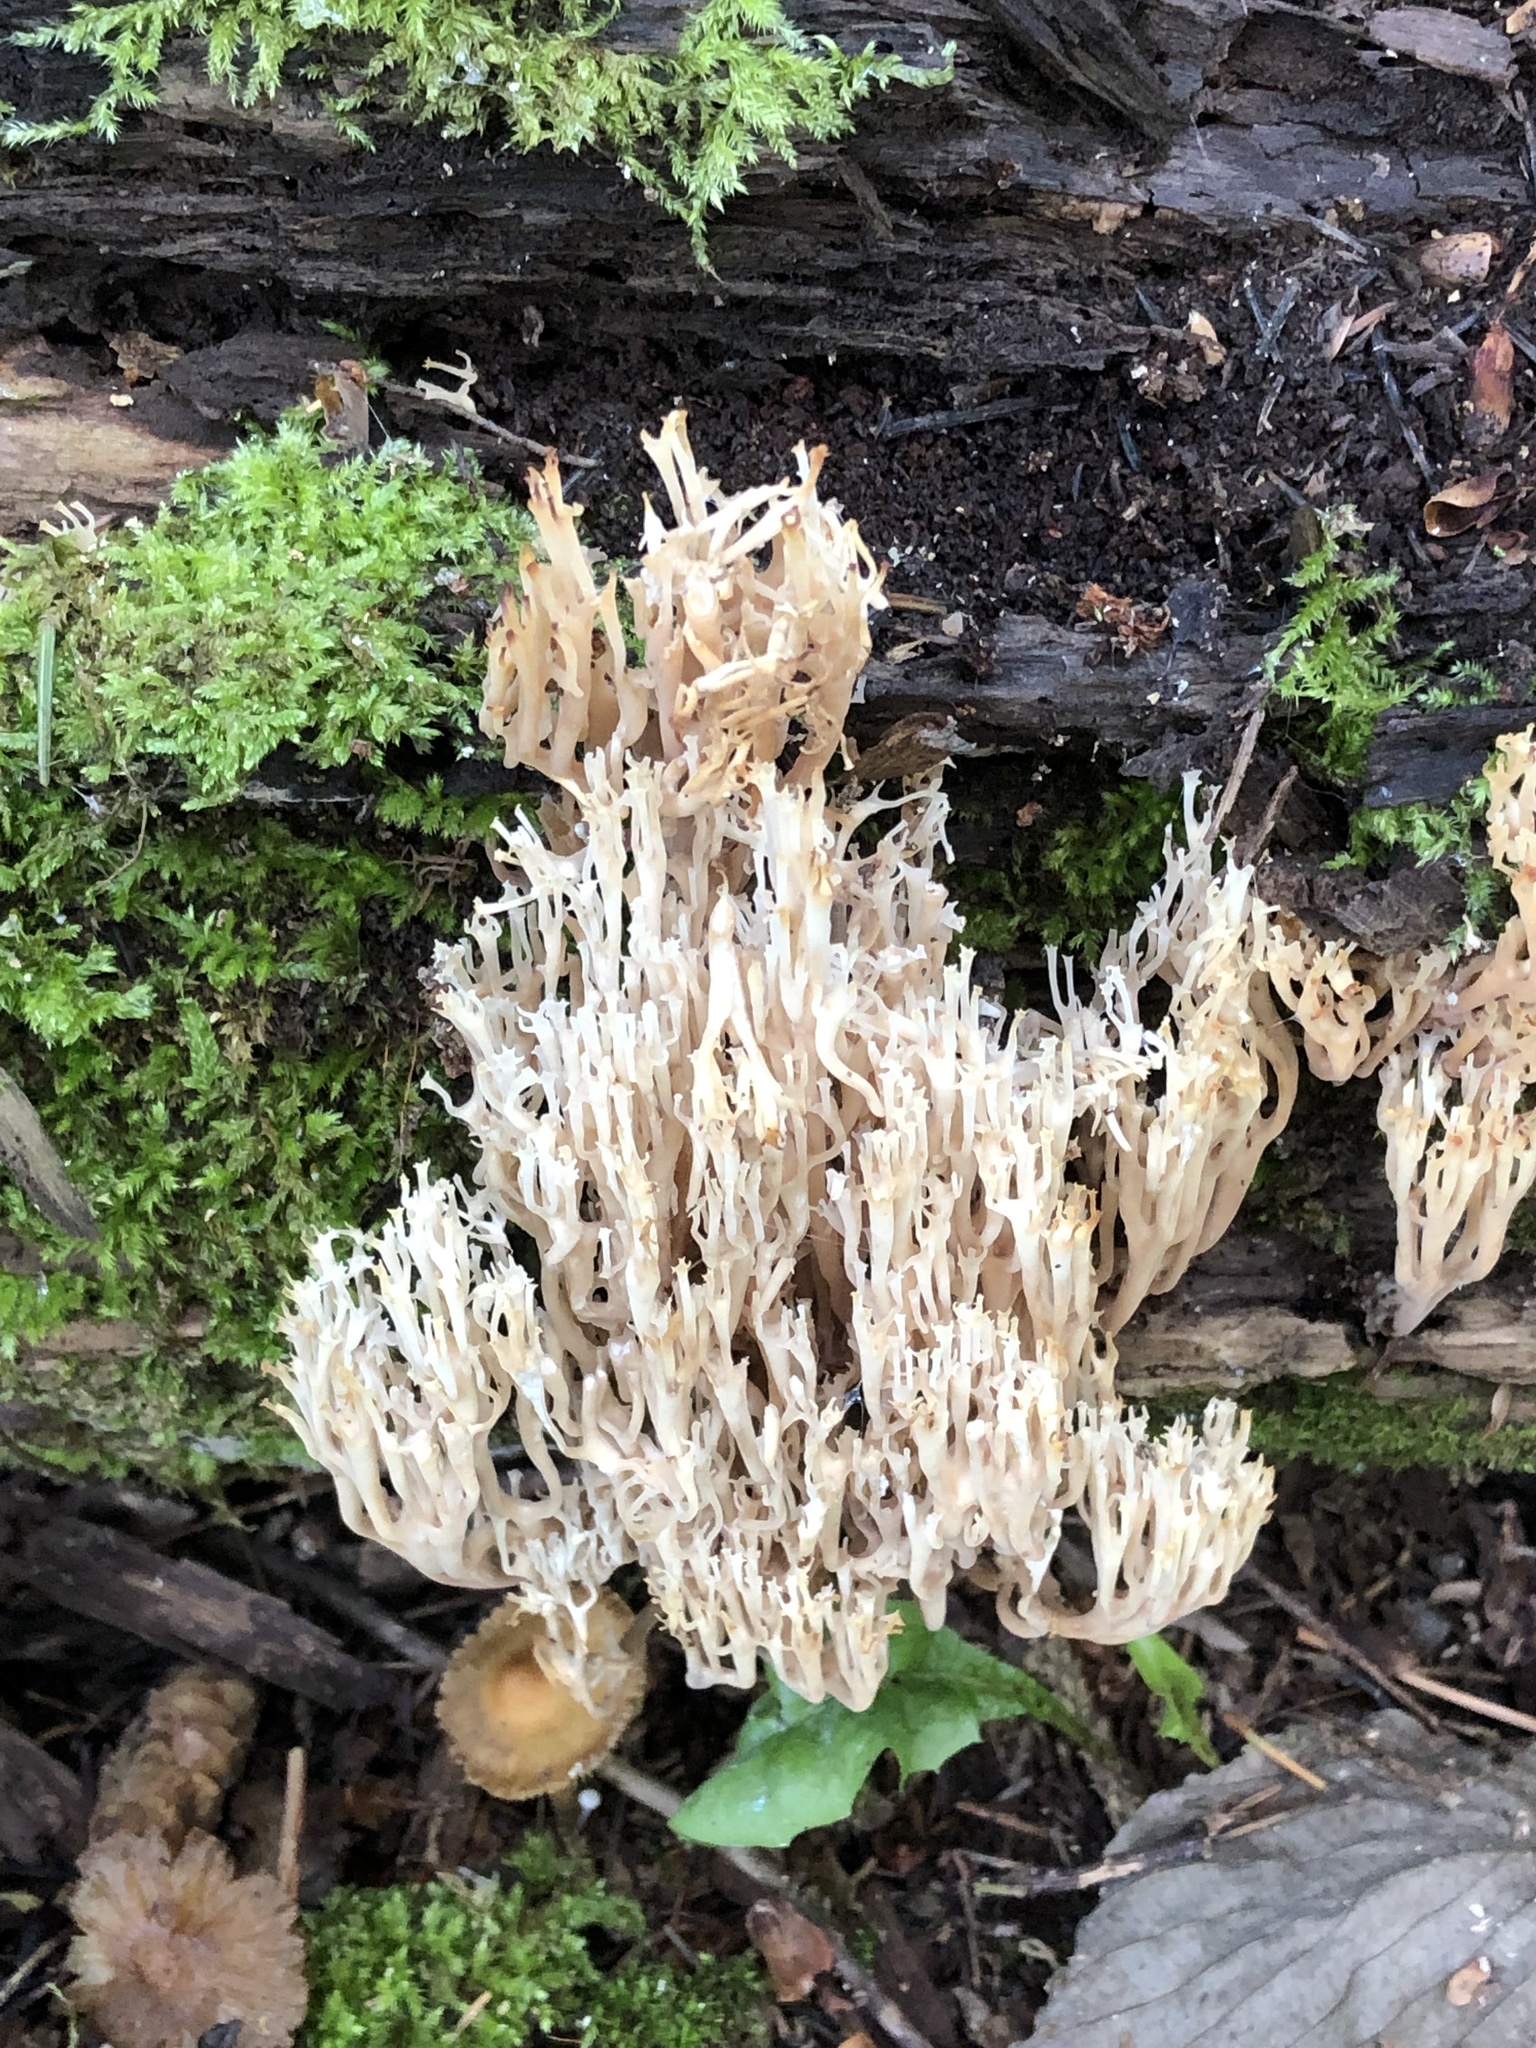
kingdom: Fungi
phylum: Basidiomycota
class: Agaricomycetes
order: Russulales
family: Auriscalpiaceae
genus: Artomyces
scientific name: Artomyces pyxidatus
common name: Crown-tipped coral fungus
